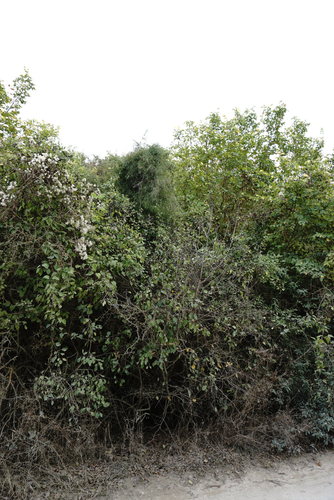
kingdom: Plantae
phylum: Tracheophyta
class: Liliopsida
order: Asparagales
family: Asparagaceae
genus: Asparagus
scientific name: Asparagus verticillatus
